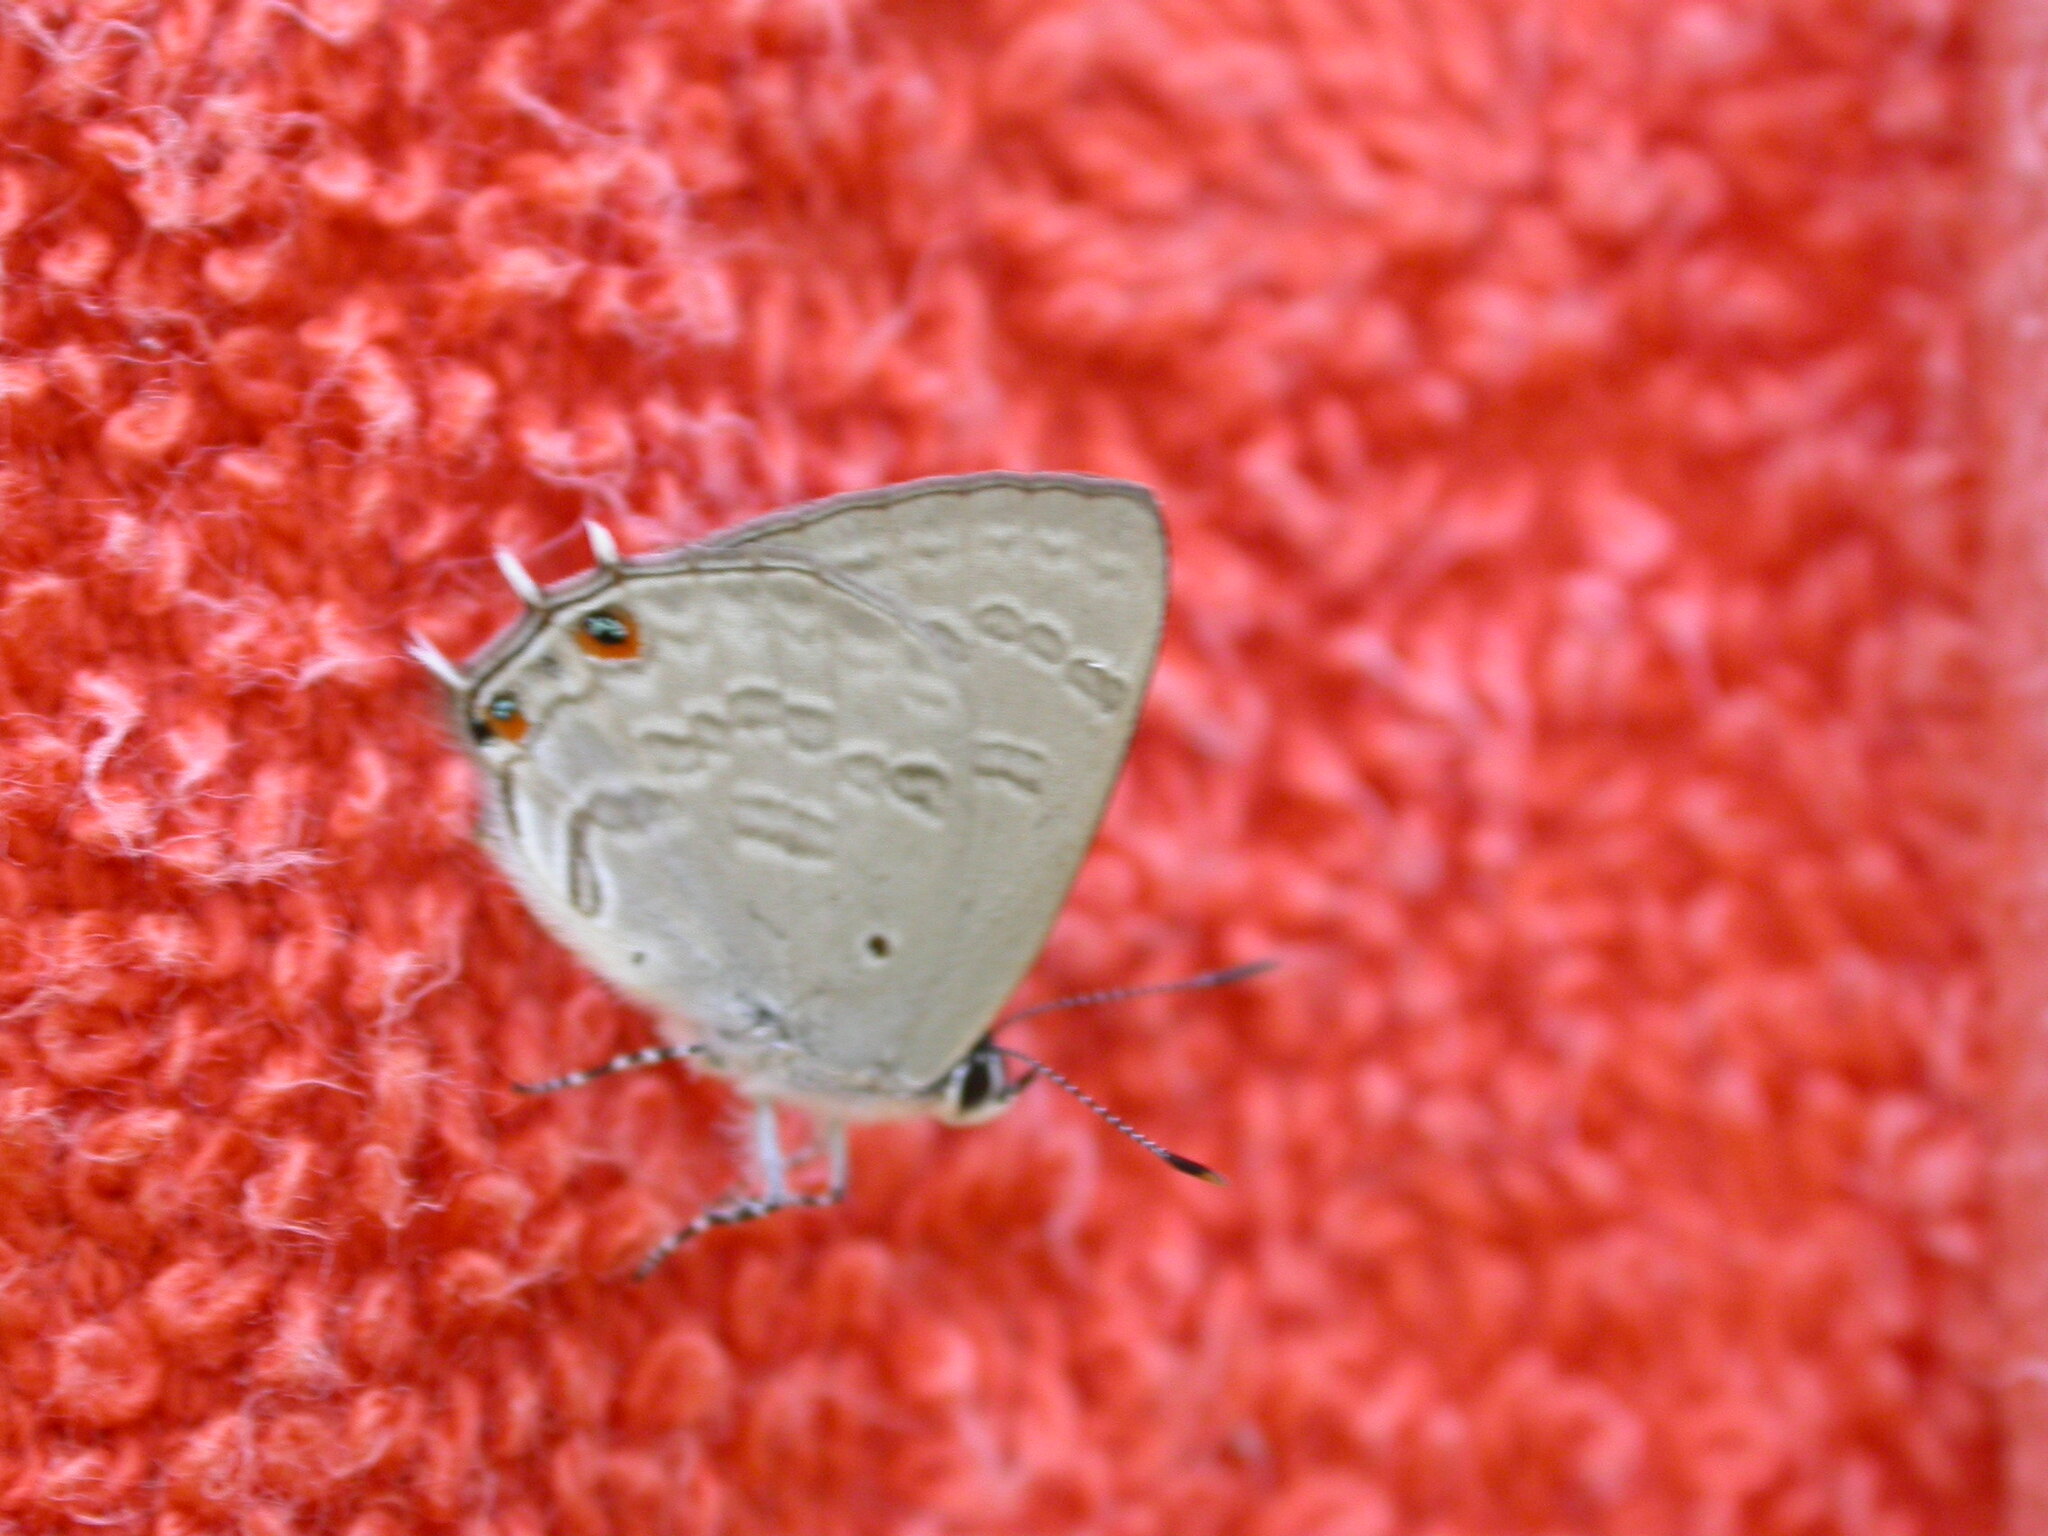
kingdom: Animalia
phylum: Arthropoda
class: Insecta
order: Lepidoptera
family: Lycaenidae
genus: Anthene
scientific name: Anthene liodes
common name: Liodes hairtail
